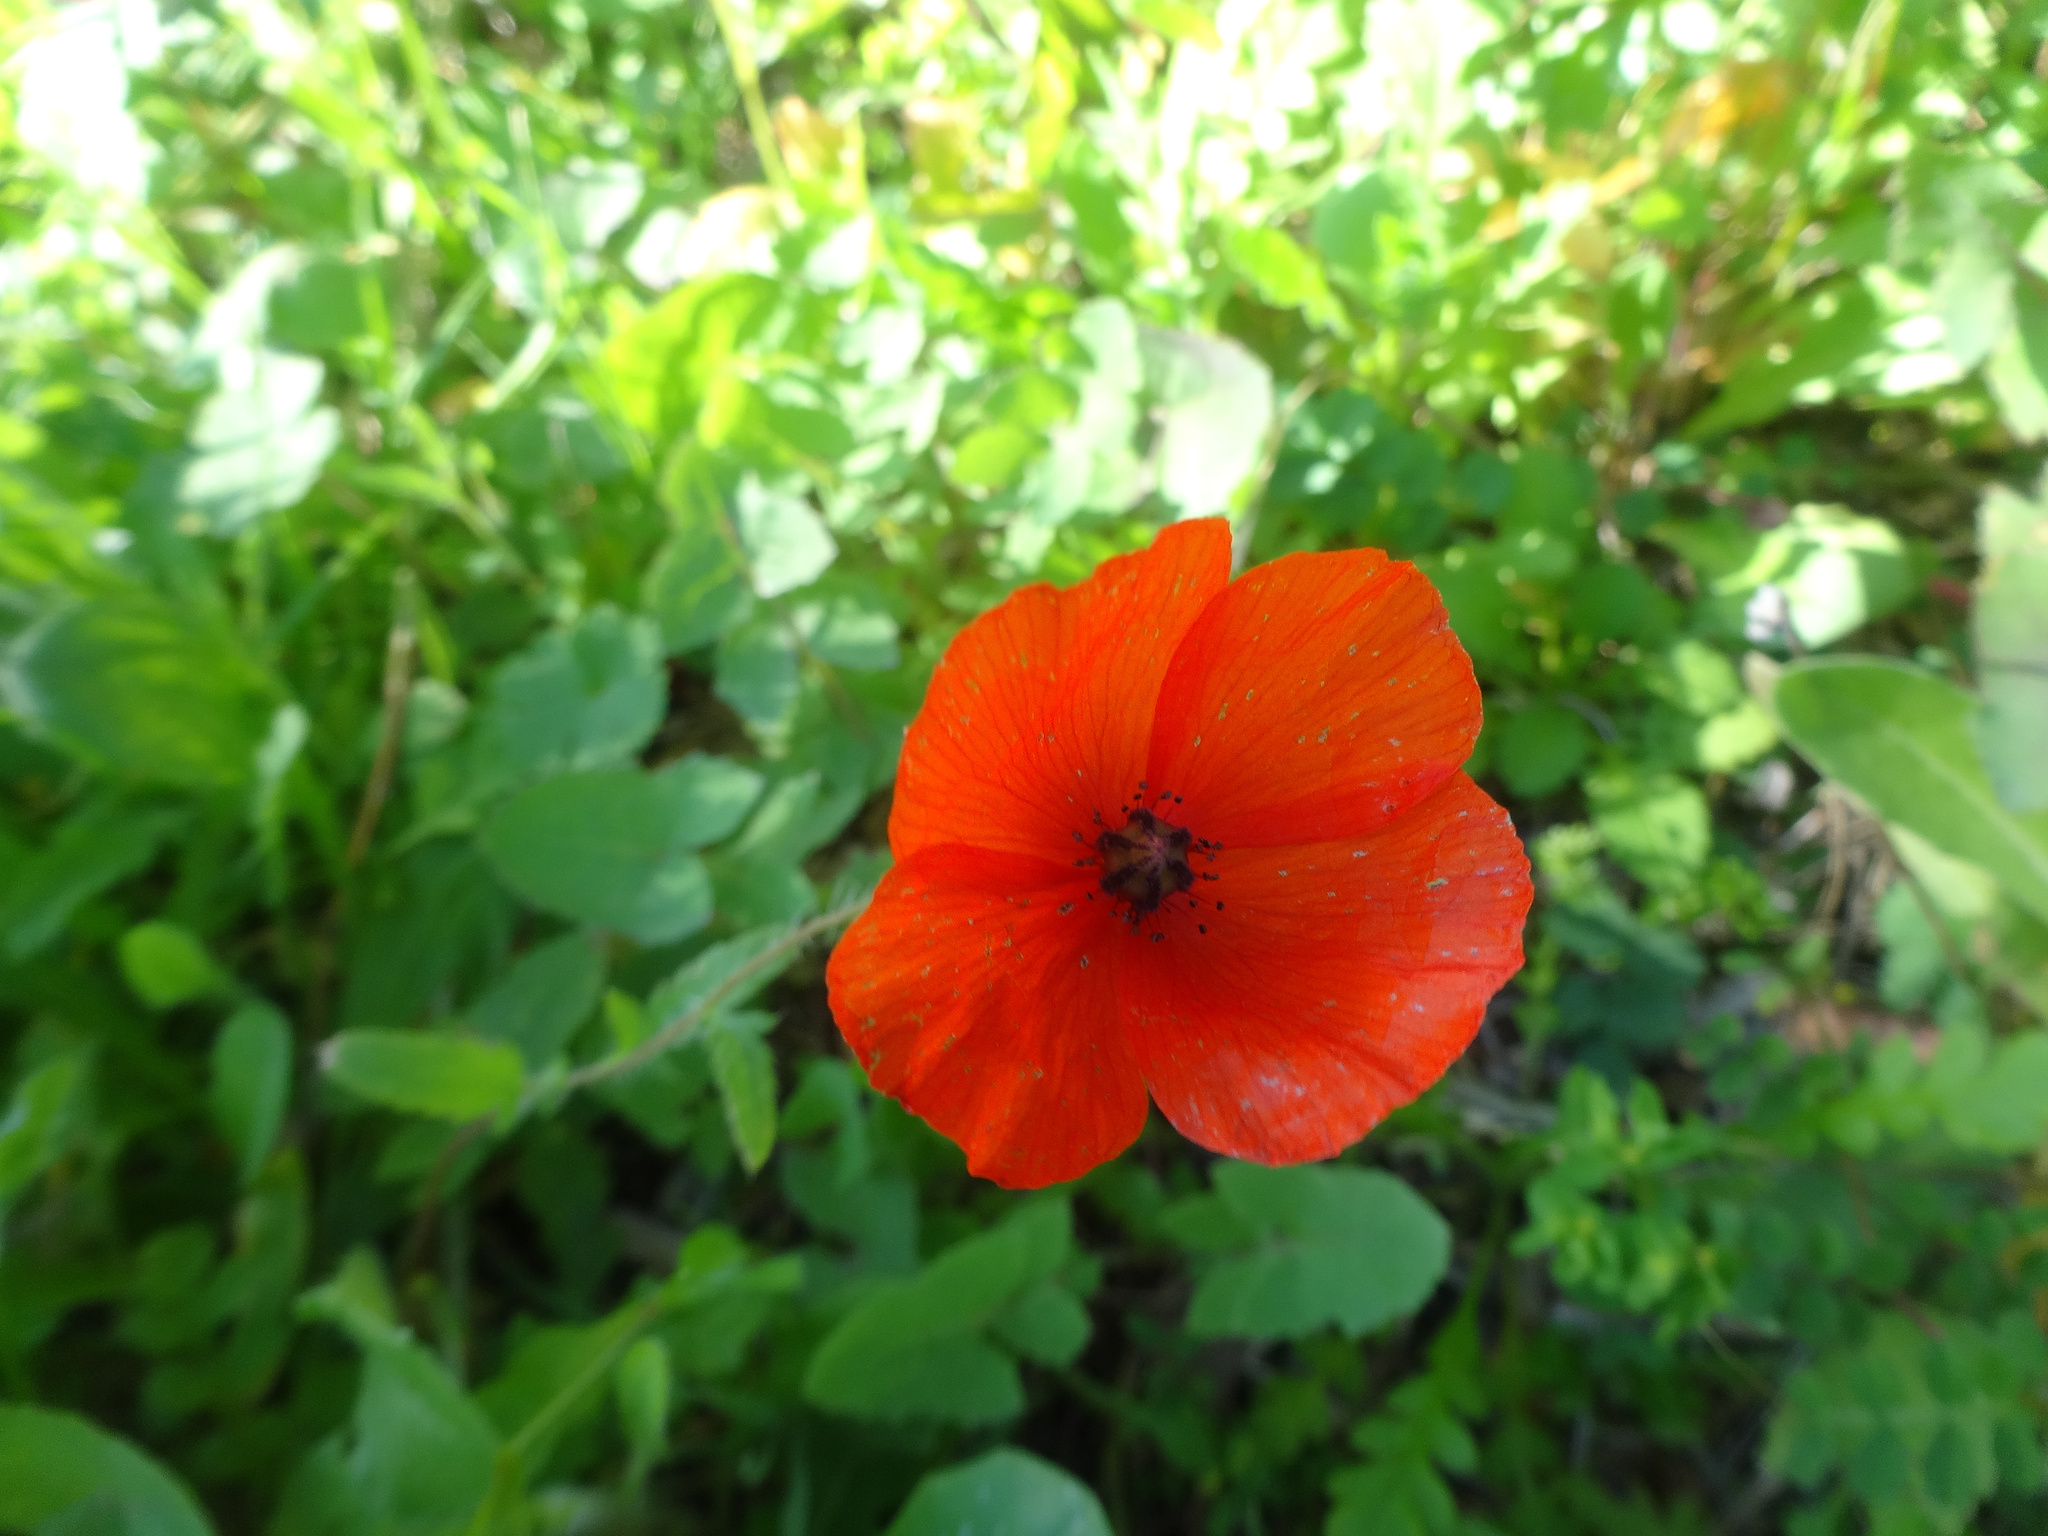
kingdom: Plantae
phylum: Tracheophyta
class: Magnoliopsida
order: Ranunculales
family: Papaveraceae
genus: Papaver
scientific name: Papaver rhoeas
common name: Corn poppy
